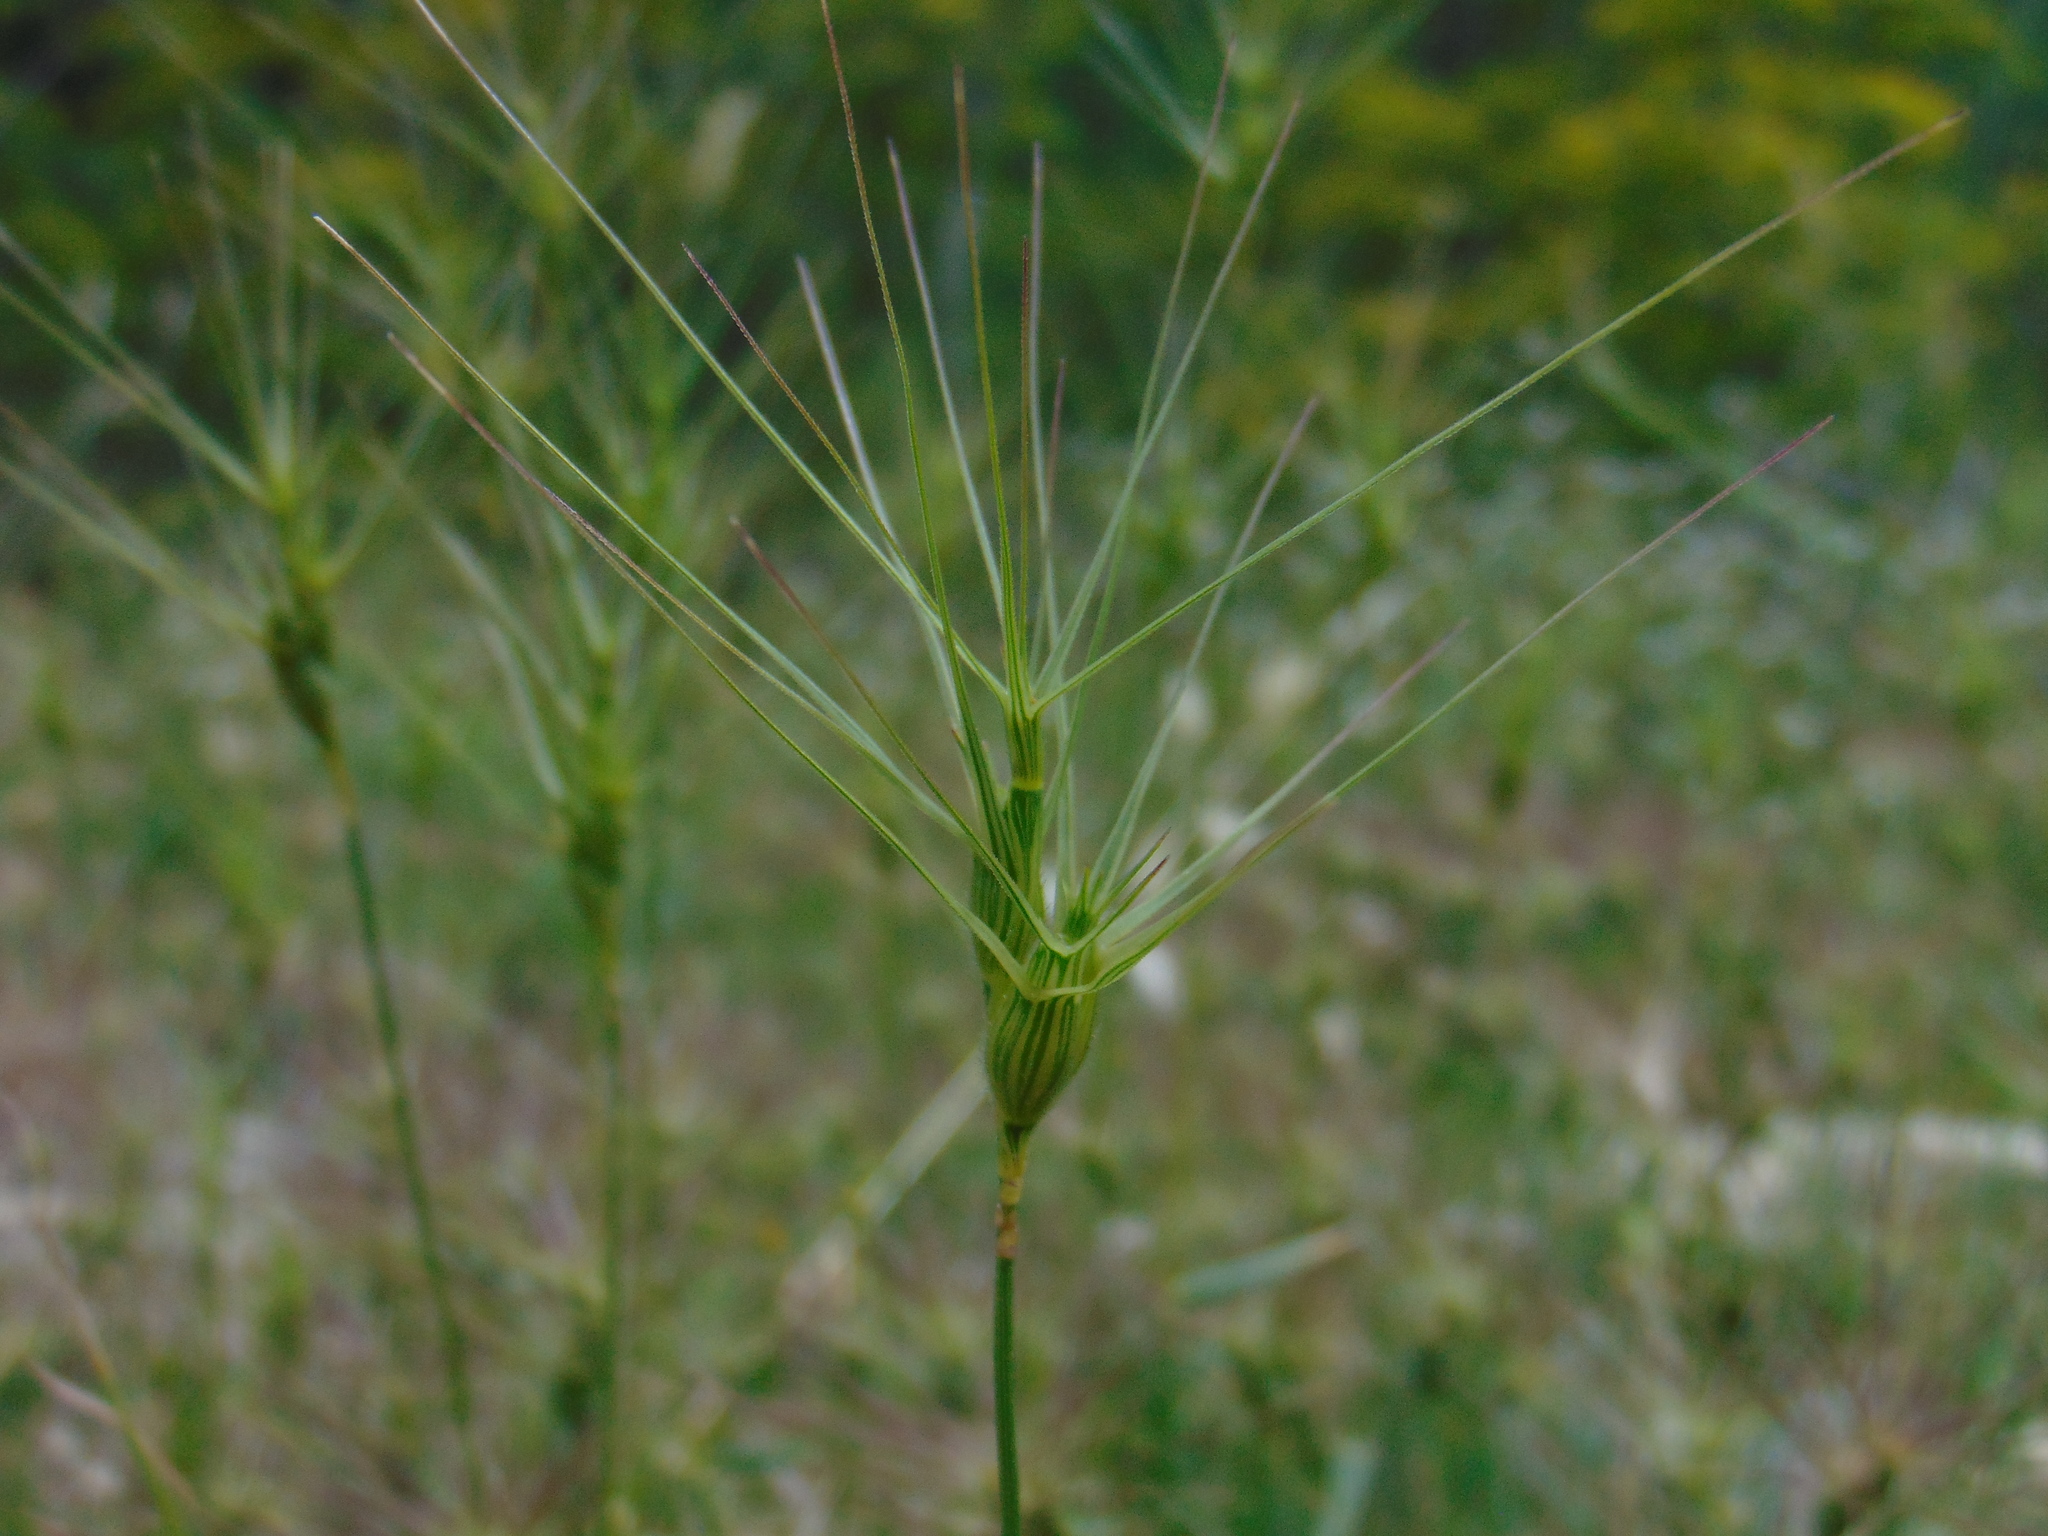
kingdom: Plantae
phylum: Tracheophyta
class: Liliopsida
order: Poales
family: Poaceae
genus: Aegilops
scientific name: Aegilops geniculata
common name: Ovate goat grass
